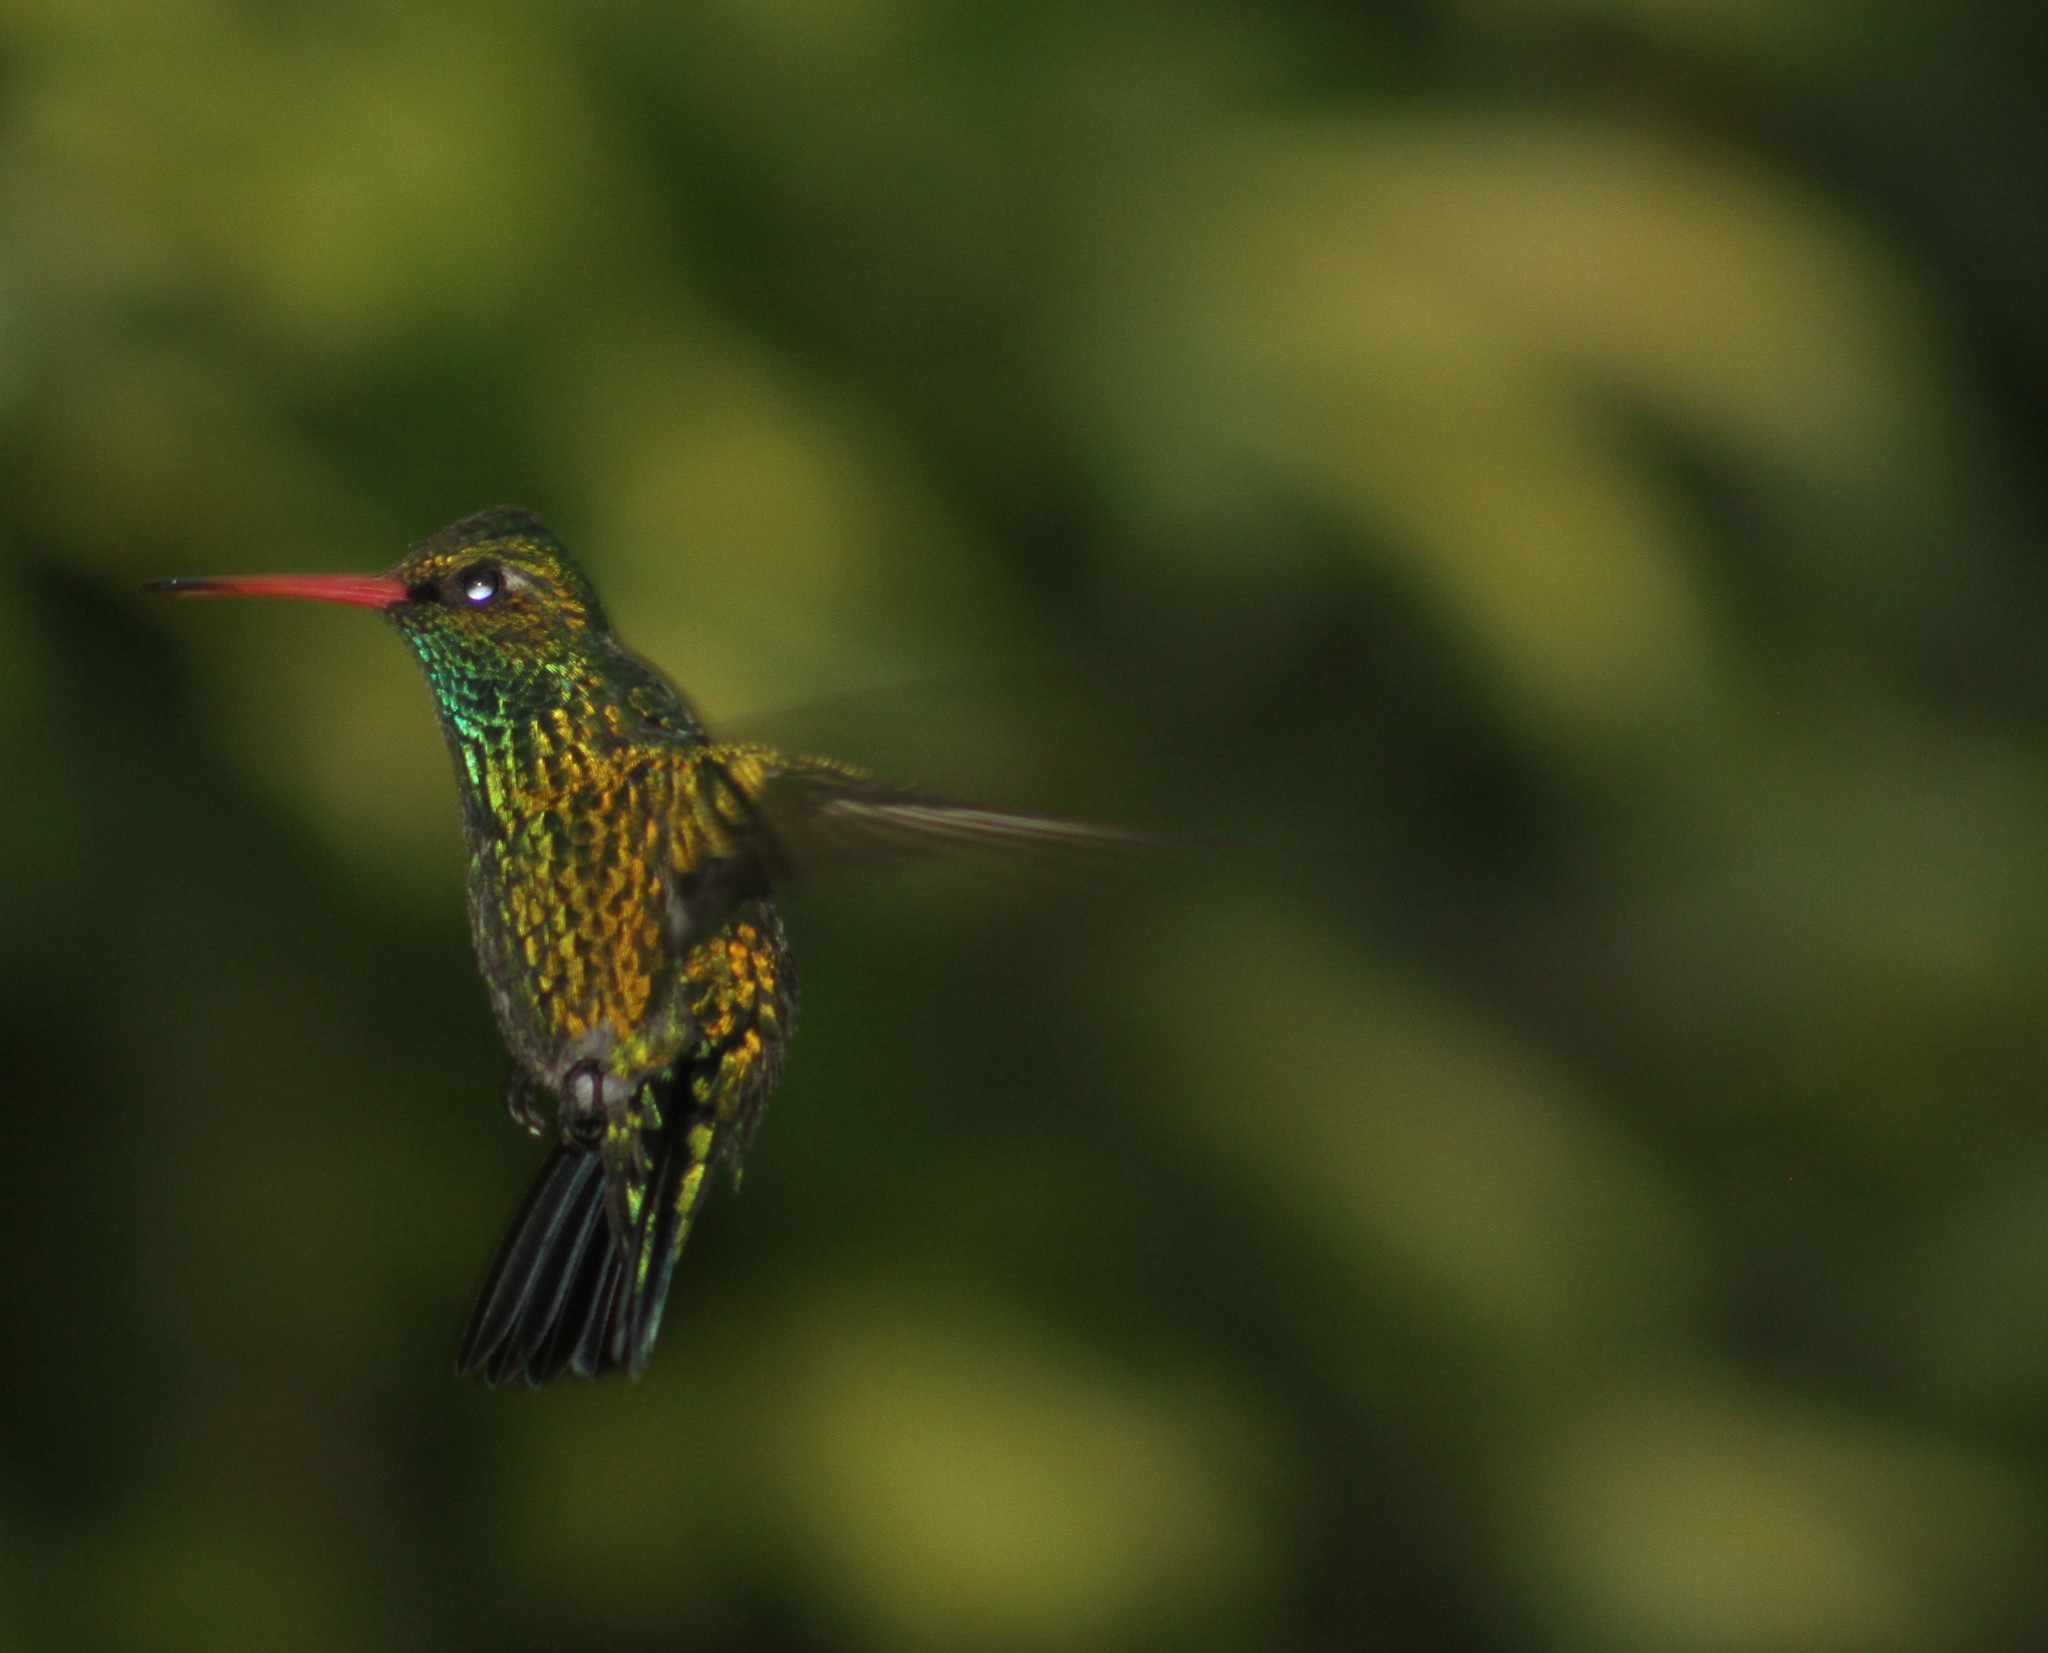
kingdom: Animalia
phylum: Chordata
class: Aves
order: Apodiformes
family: Trochilidae
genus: Chlorostilbon
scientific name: Chlorostilbon lucidus
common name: Glittering-bellied emerald
